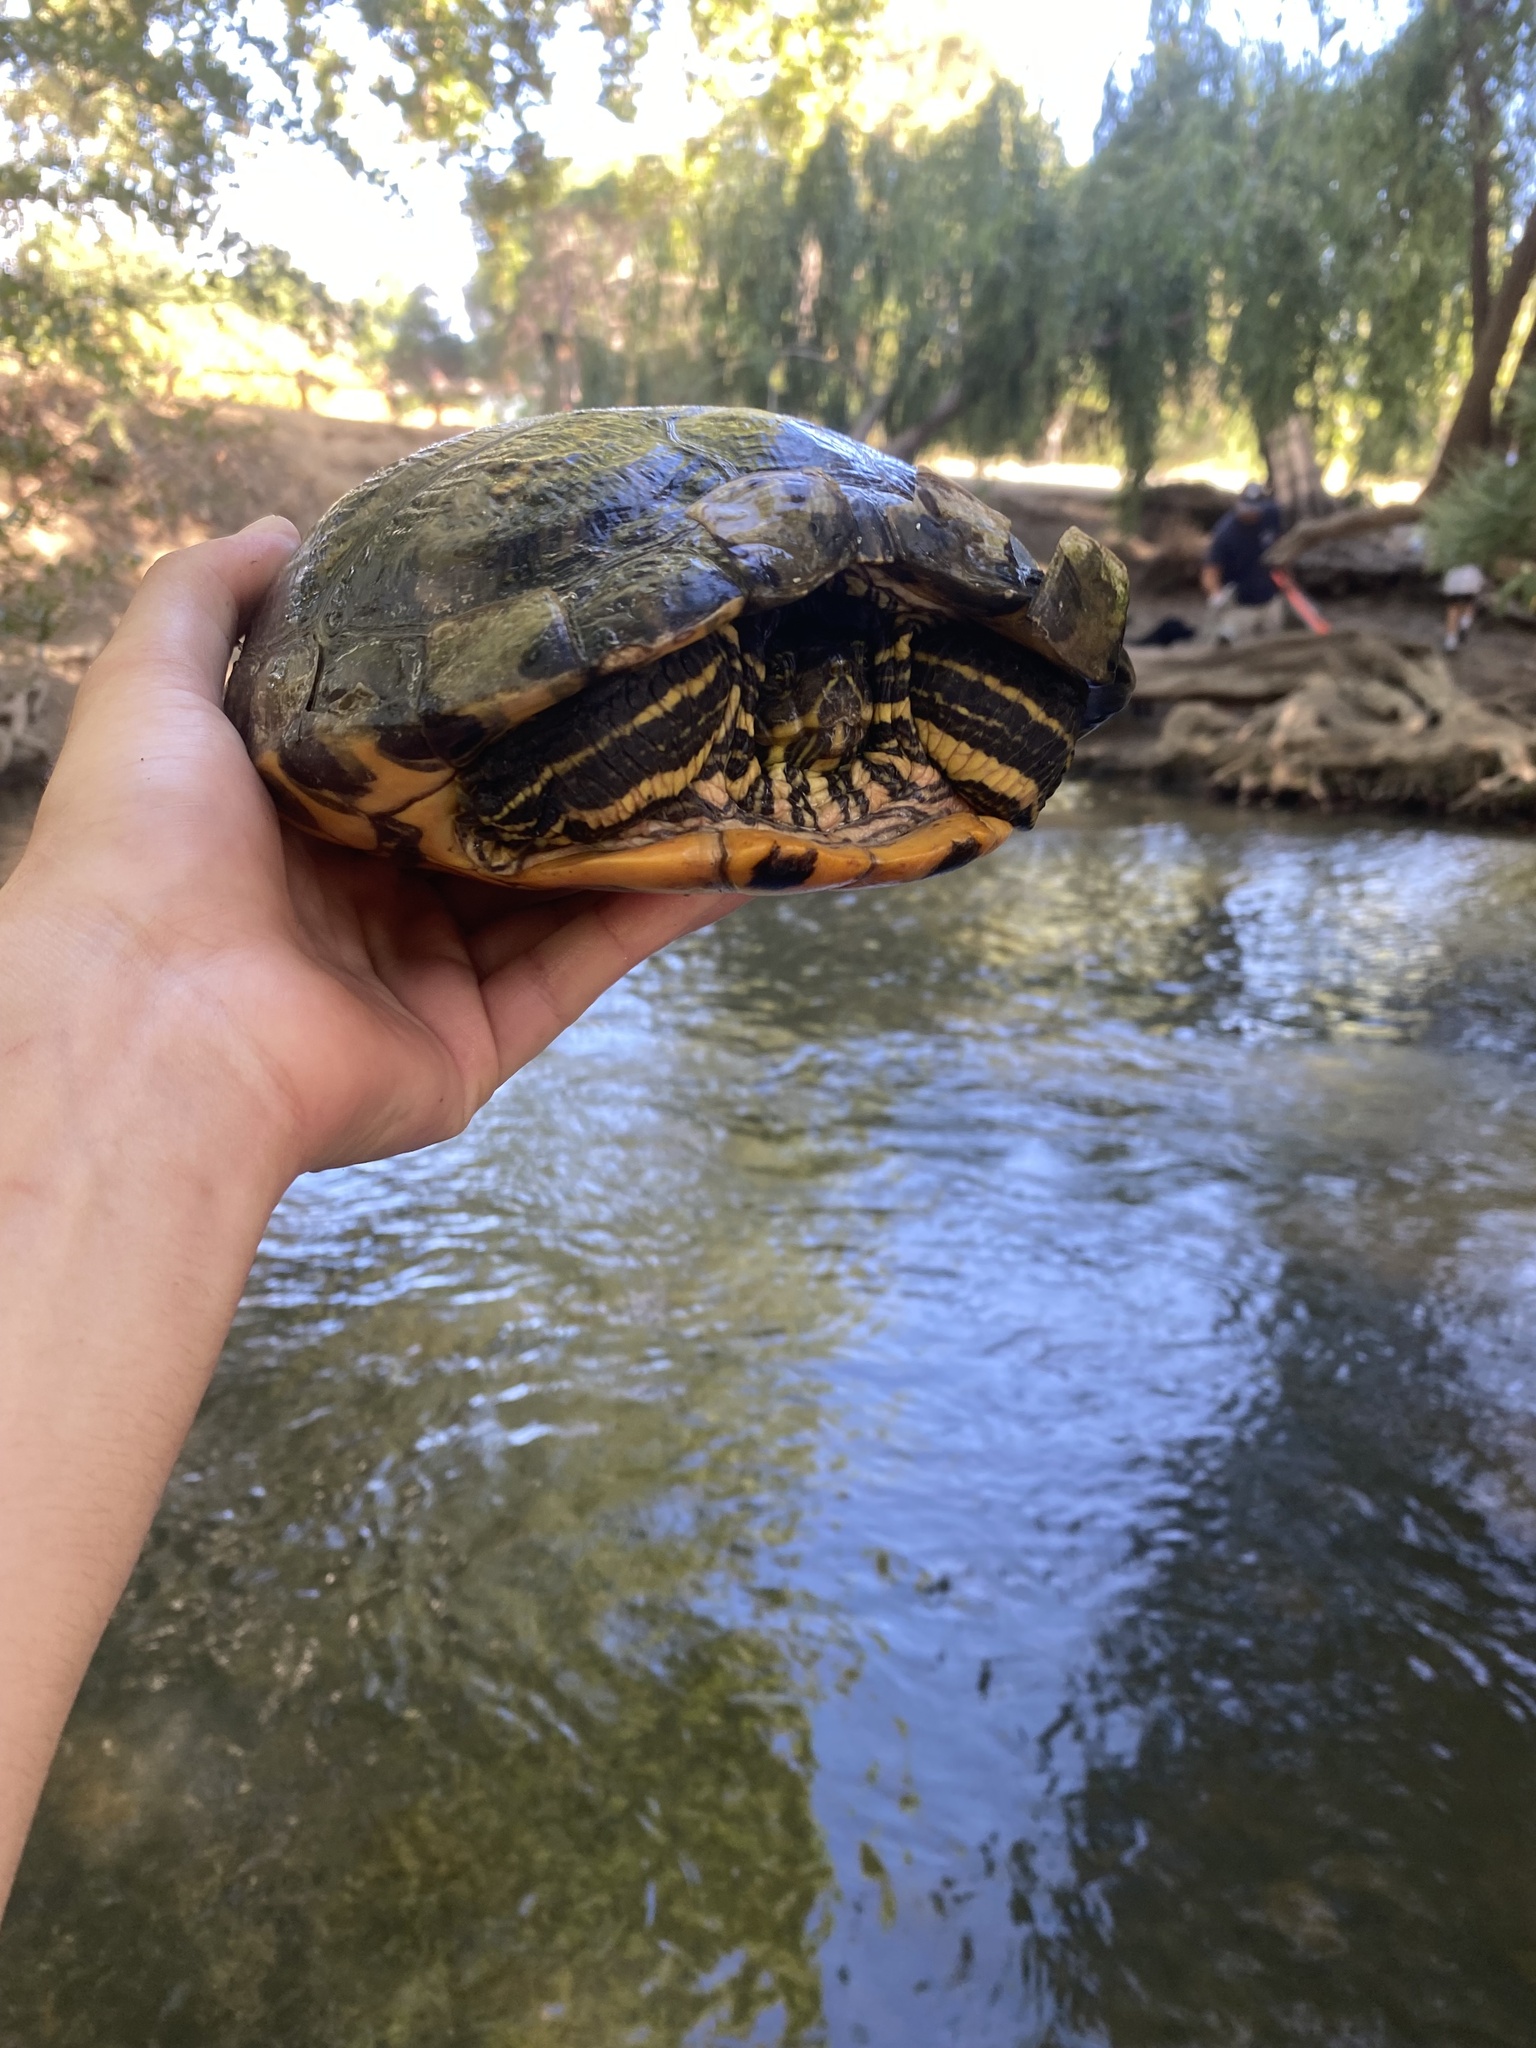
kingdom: Animalia
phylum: Chordata
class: Testudines
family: Emydidae
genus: Trachemys
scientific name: Trachemys scripta
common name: Slider
